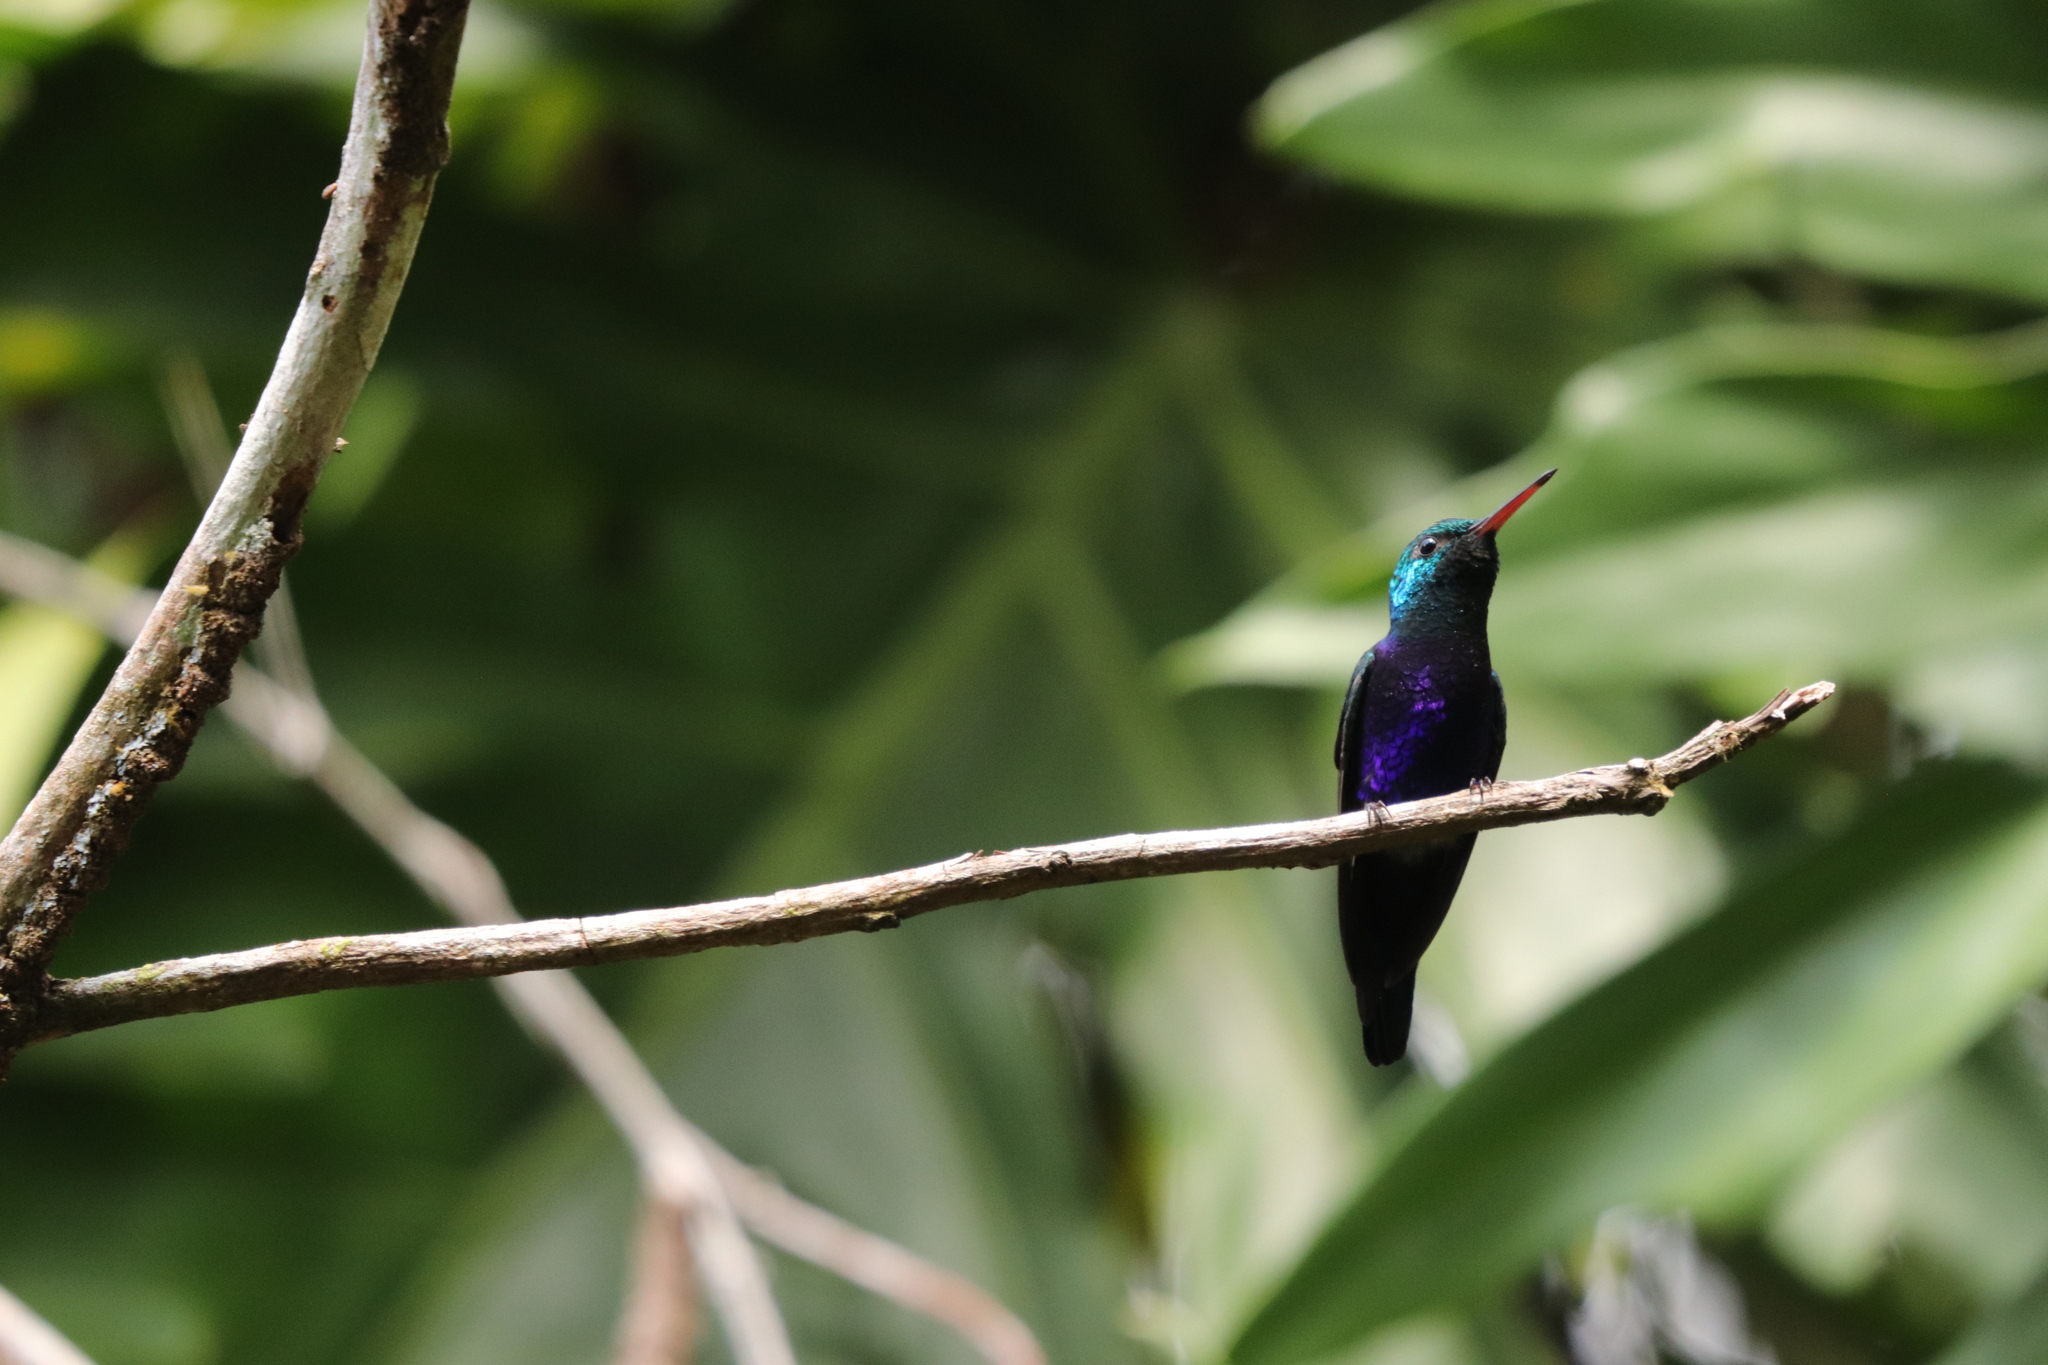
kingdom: Animalia
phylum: Chordata
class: Aves
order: Apodiformes
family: Trochilidae
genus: Chlorestes
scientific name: Chlorestes julie
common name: Violet-bellied hummingbird
